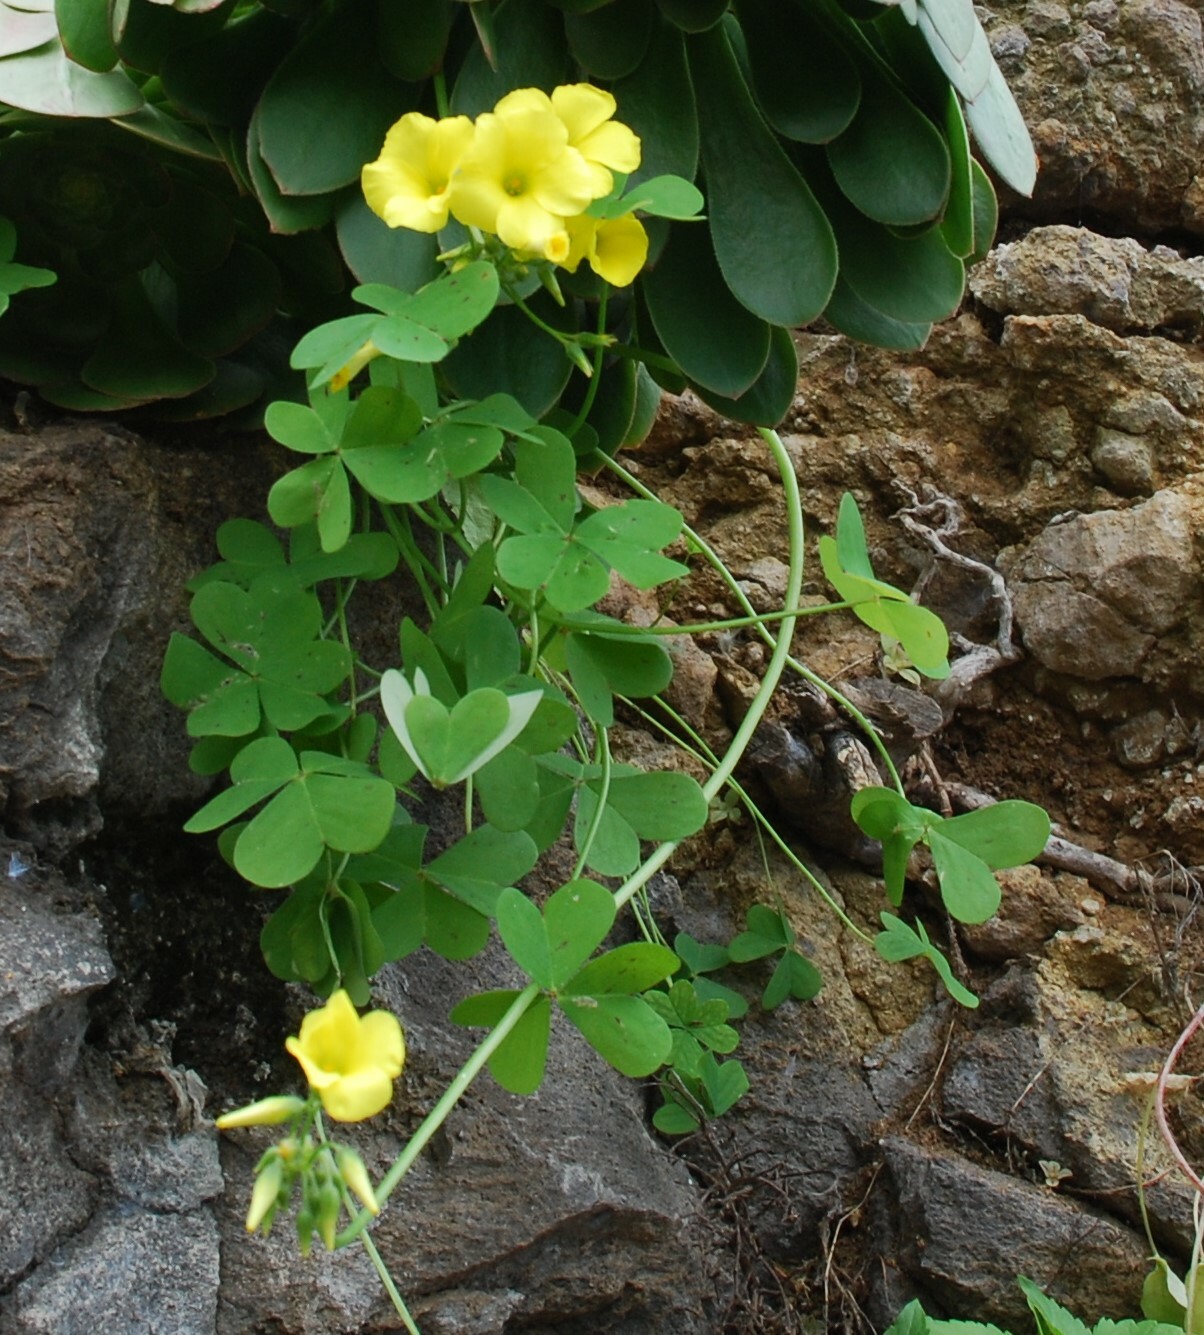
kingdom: Plantae
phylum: Tracheophyta
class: Magnoliopsida
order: Oxalidales
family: Oxalidaceae
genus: Oxalis
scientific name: Oxalis pes-caprae
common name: Bermuda-buttercup
